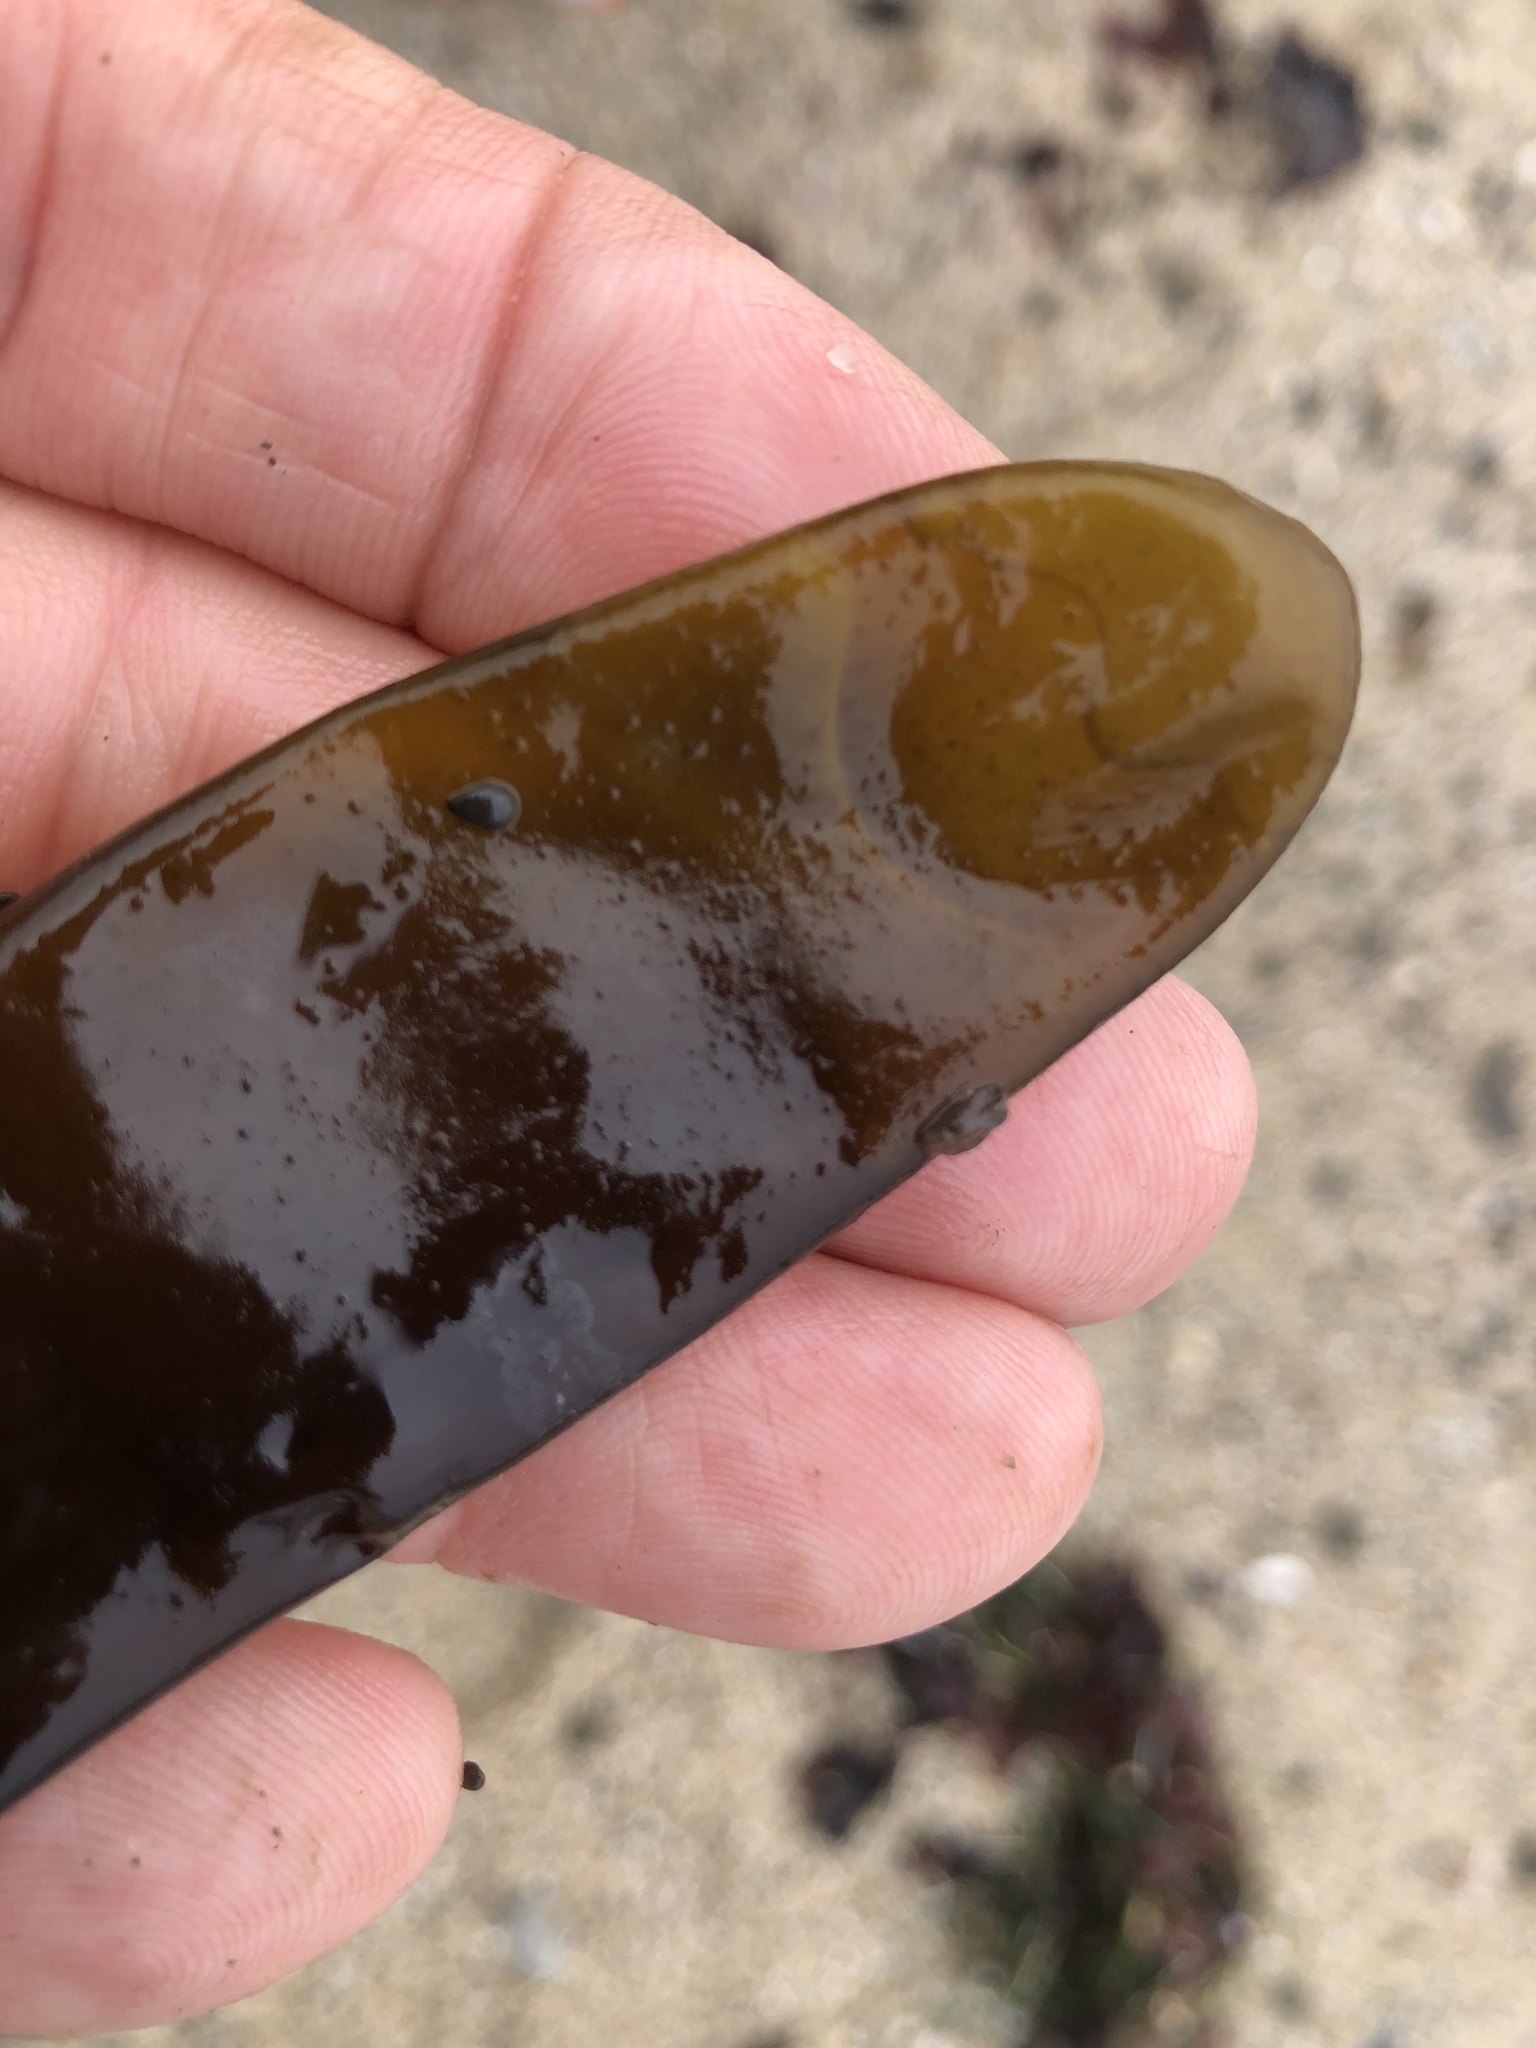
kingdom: Plantae
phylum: Rhodophyta
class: Florideophyceae
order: Palmariales
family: Palmariaceae
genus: Halosaccion
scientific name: Halosaccion glandiforme
